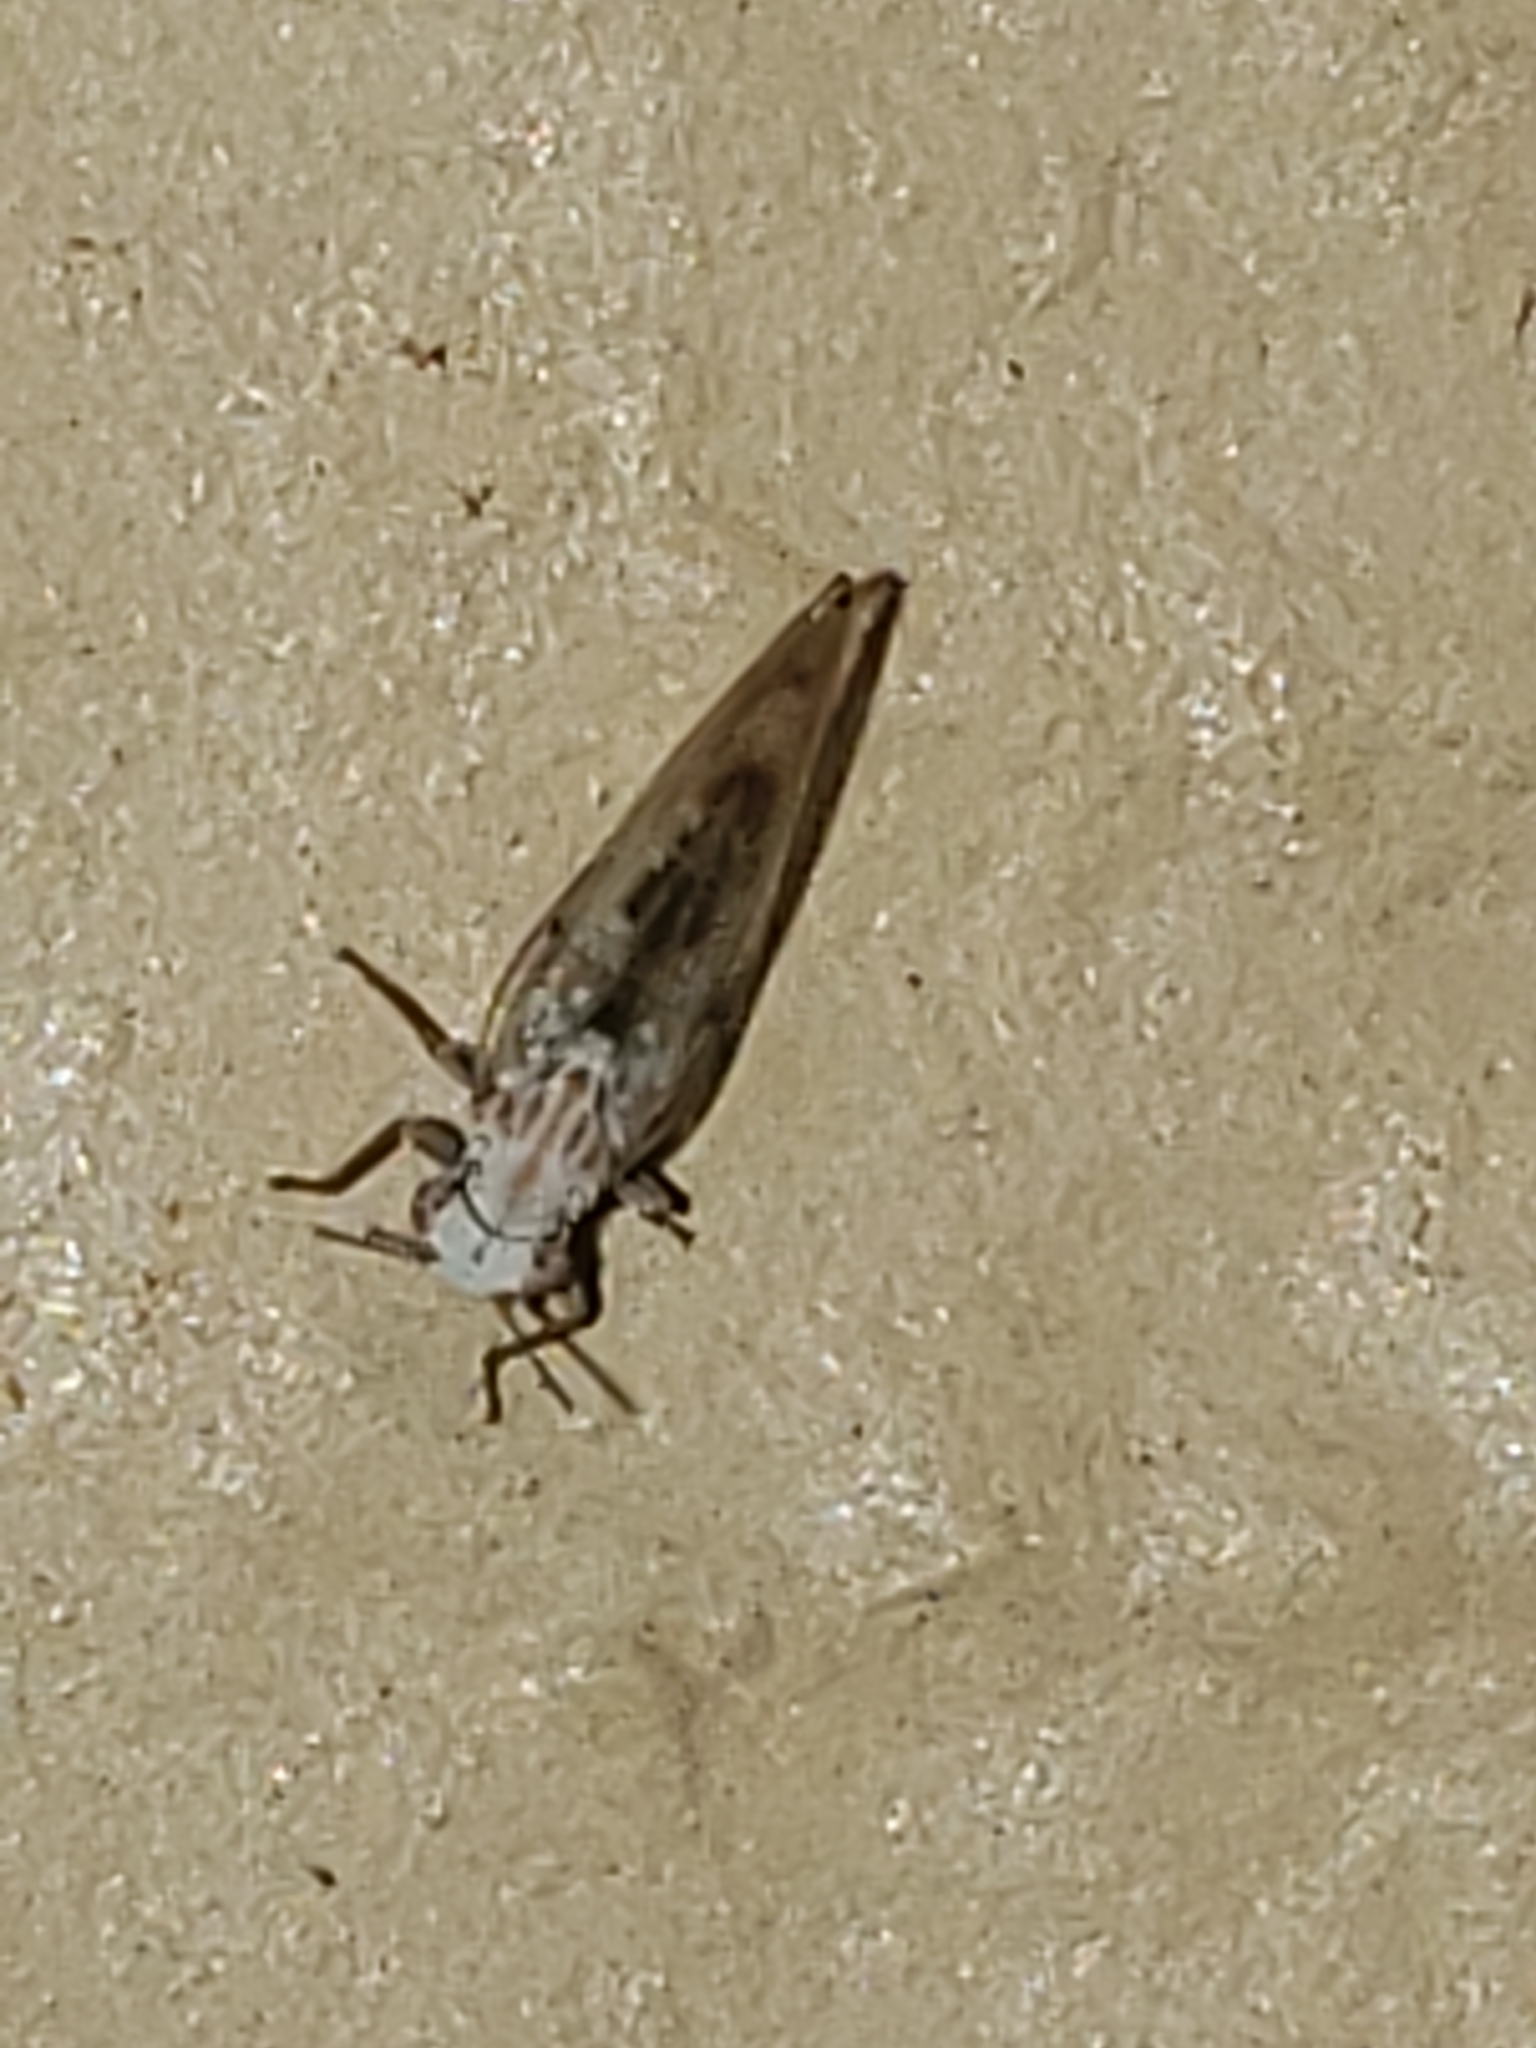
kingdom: Animalia
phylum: Arthropoda
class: Insecta
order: Hemiptera
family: Triozidae
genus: Trioza
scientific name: Trioza obtusa
